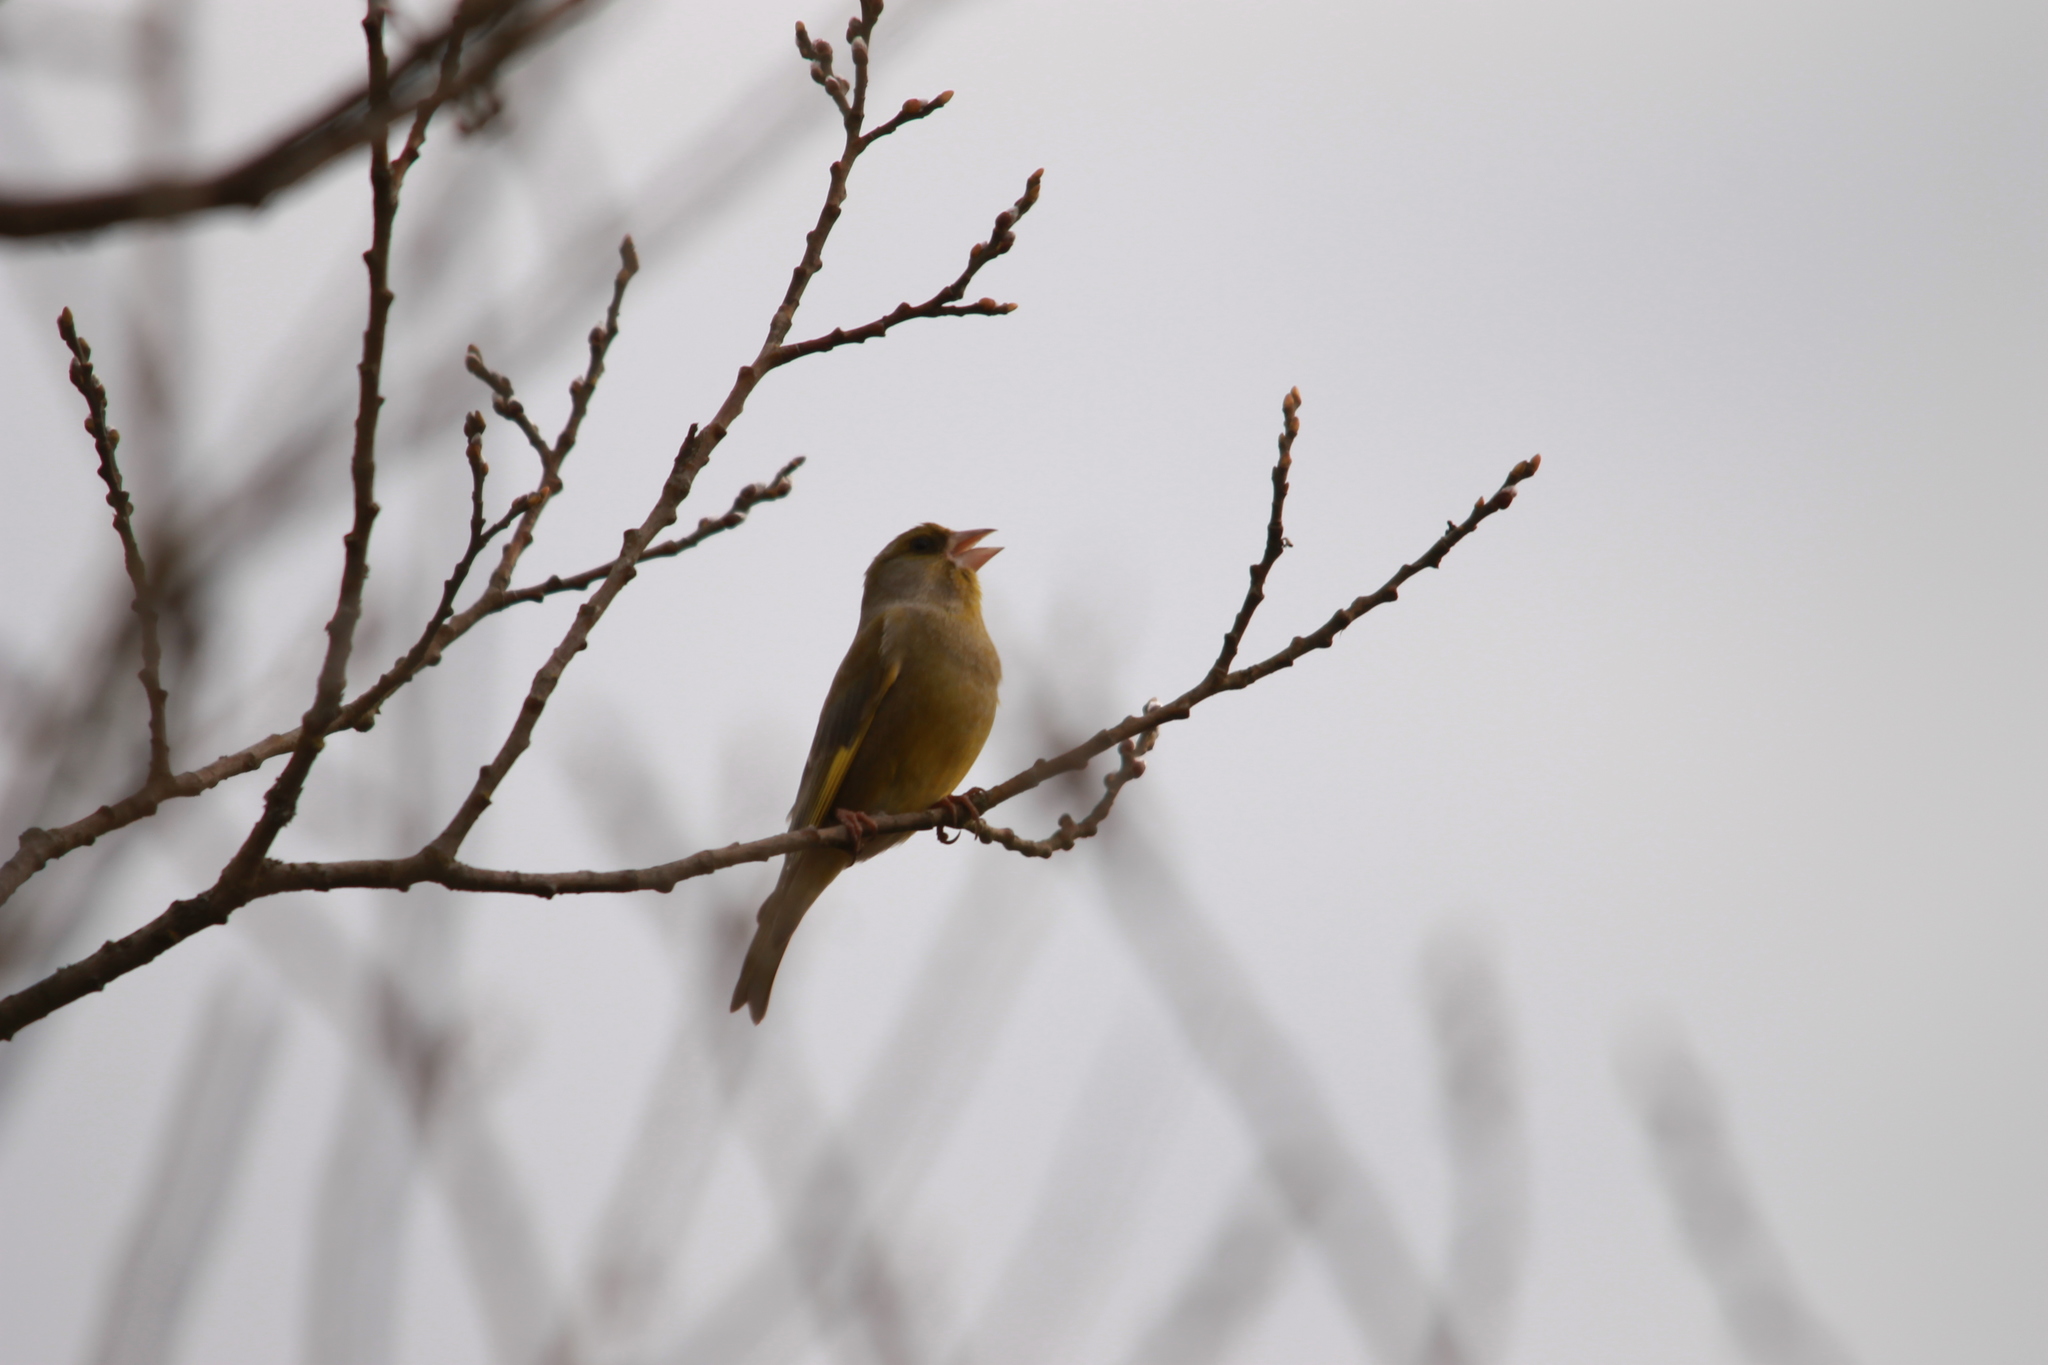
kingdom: Plantae
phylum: Tracheophyta
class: Liliopsida
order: Poales
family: Poaceae
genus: Chloris
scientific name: Chloris chloris
